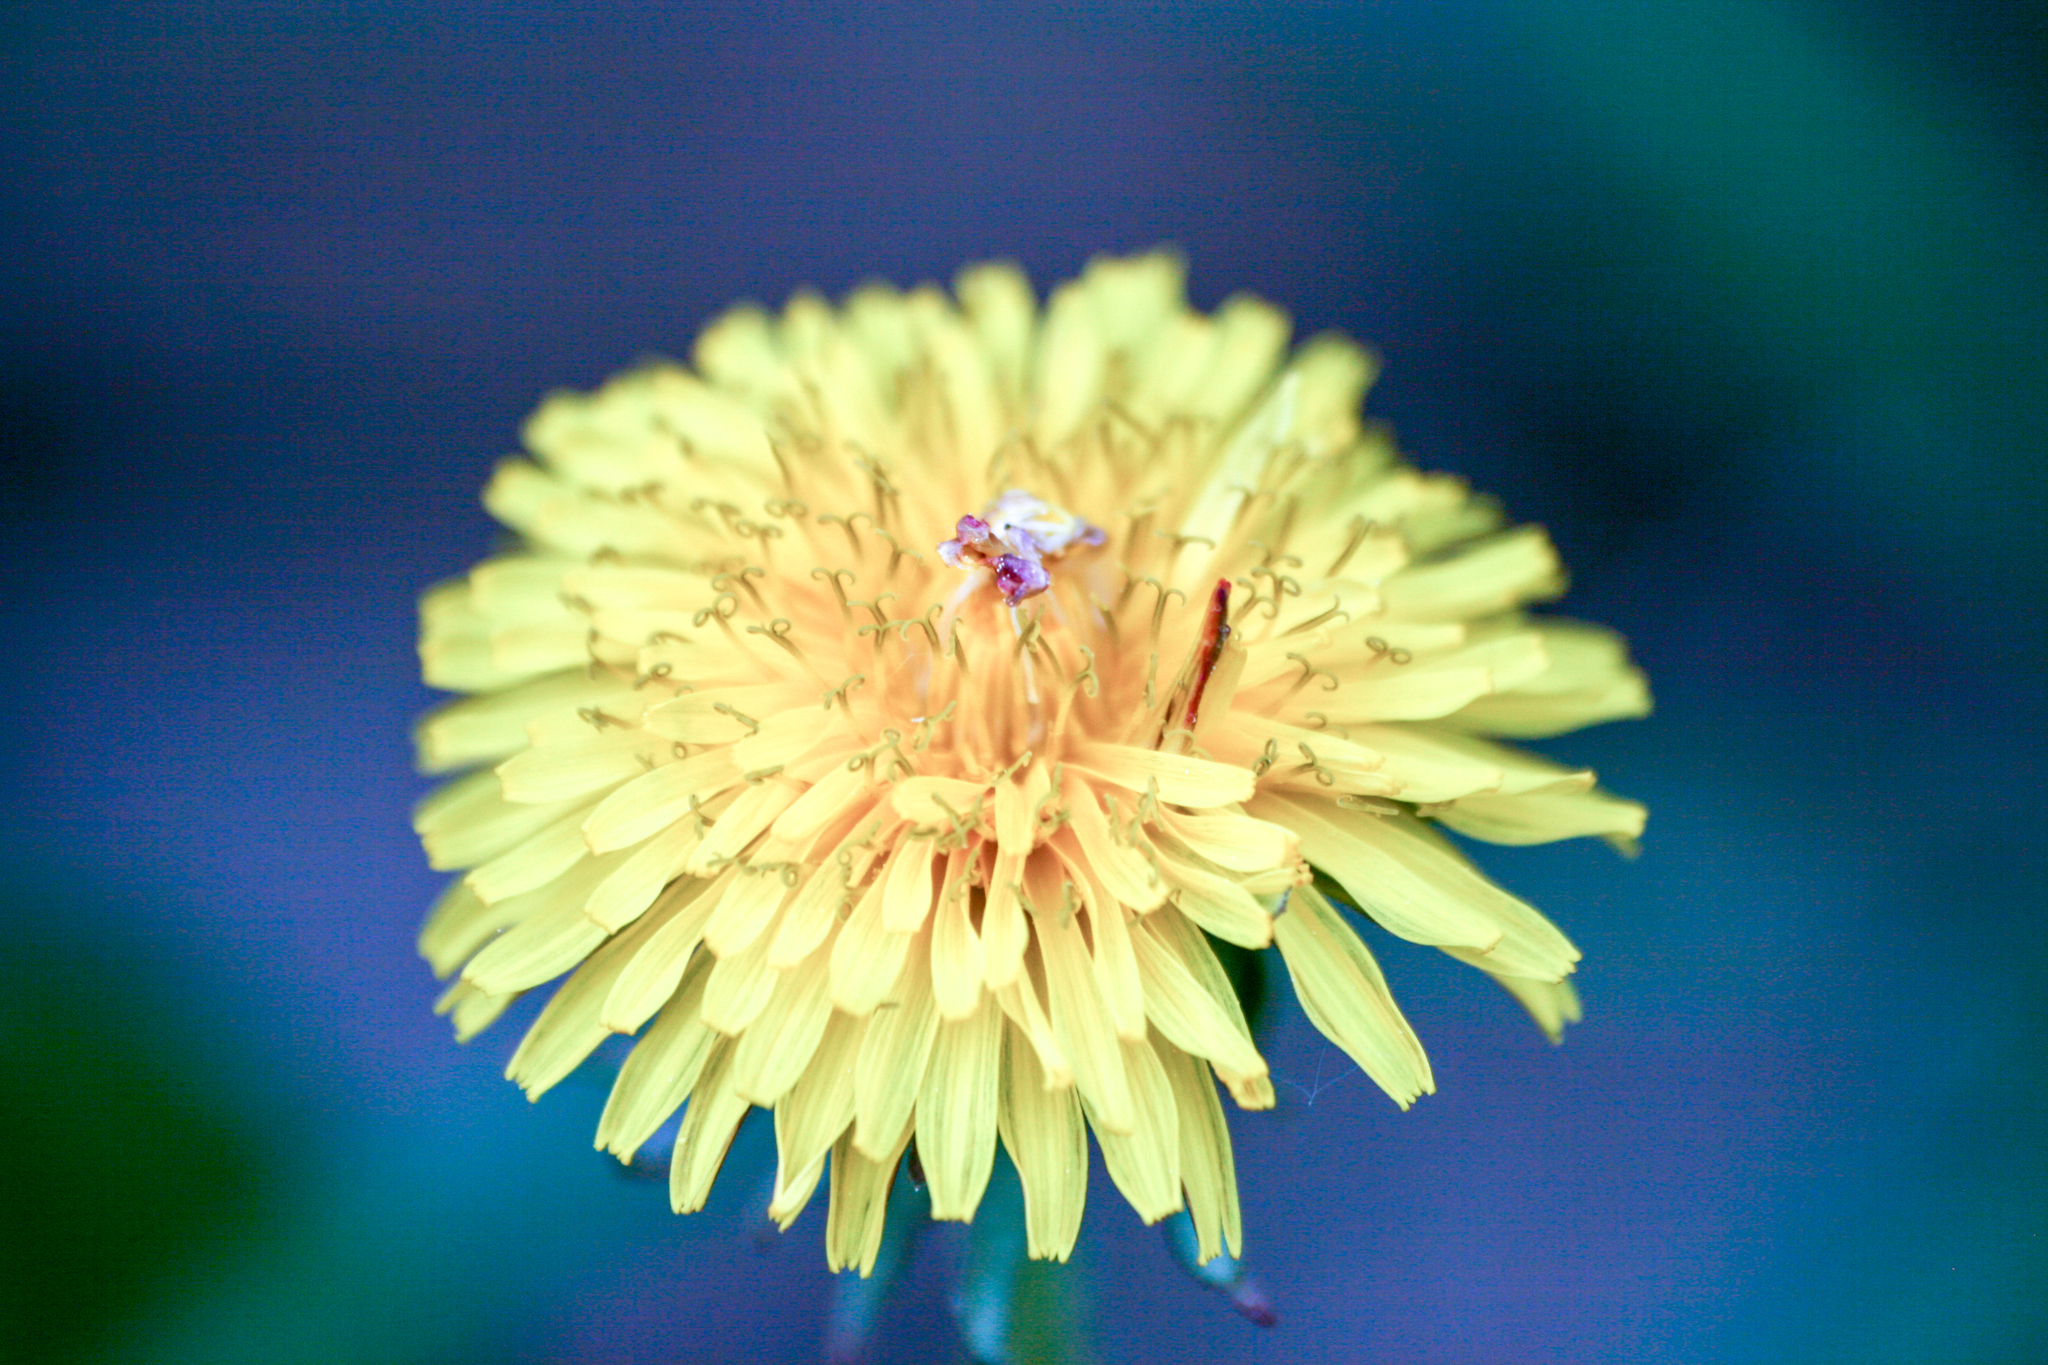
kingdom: Plantae
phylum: Tracheophyta
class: Magnoliopsida
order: Asterales
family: Asteraceae
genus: Taraxacum
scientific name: Taraxacum officinale
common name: Common dandelion
